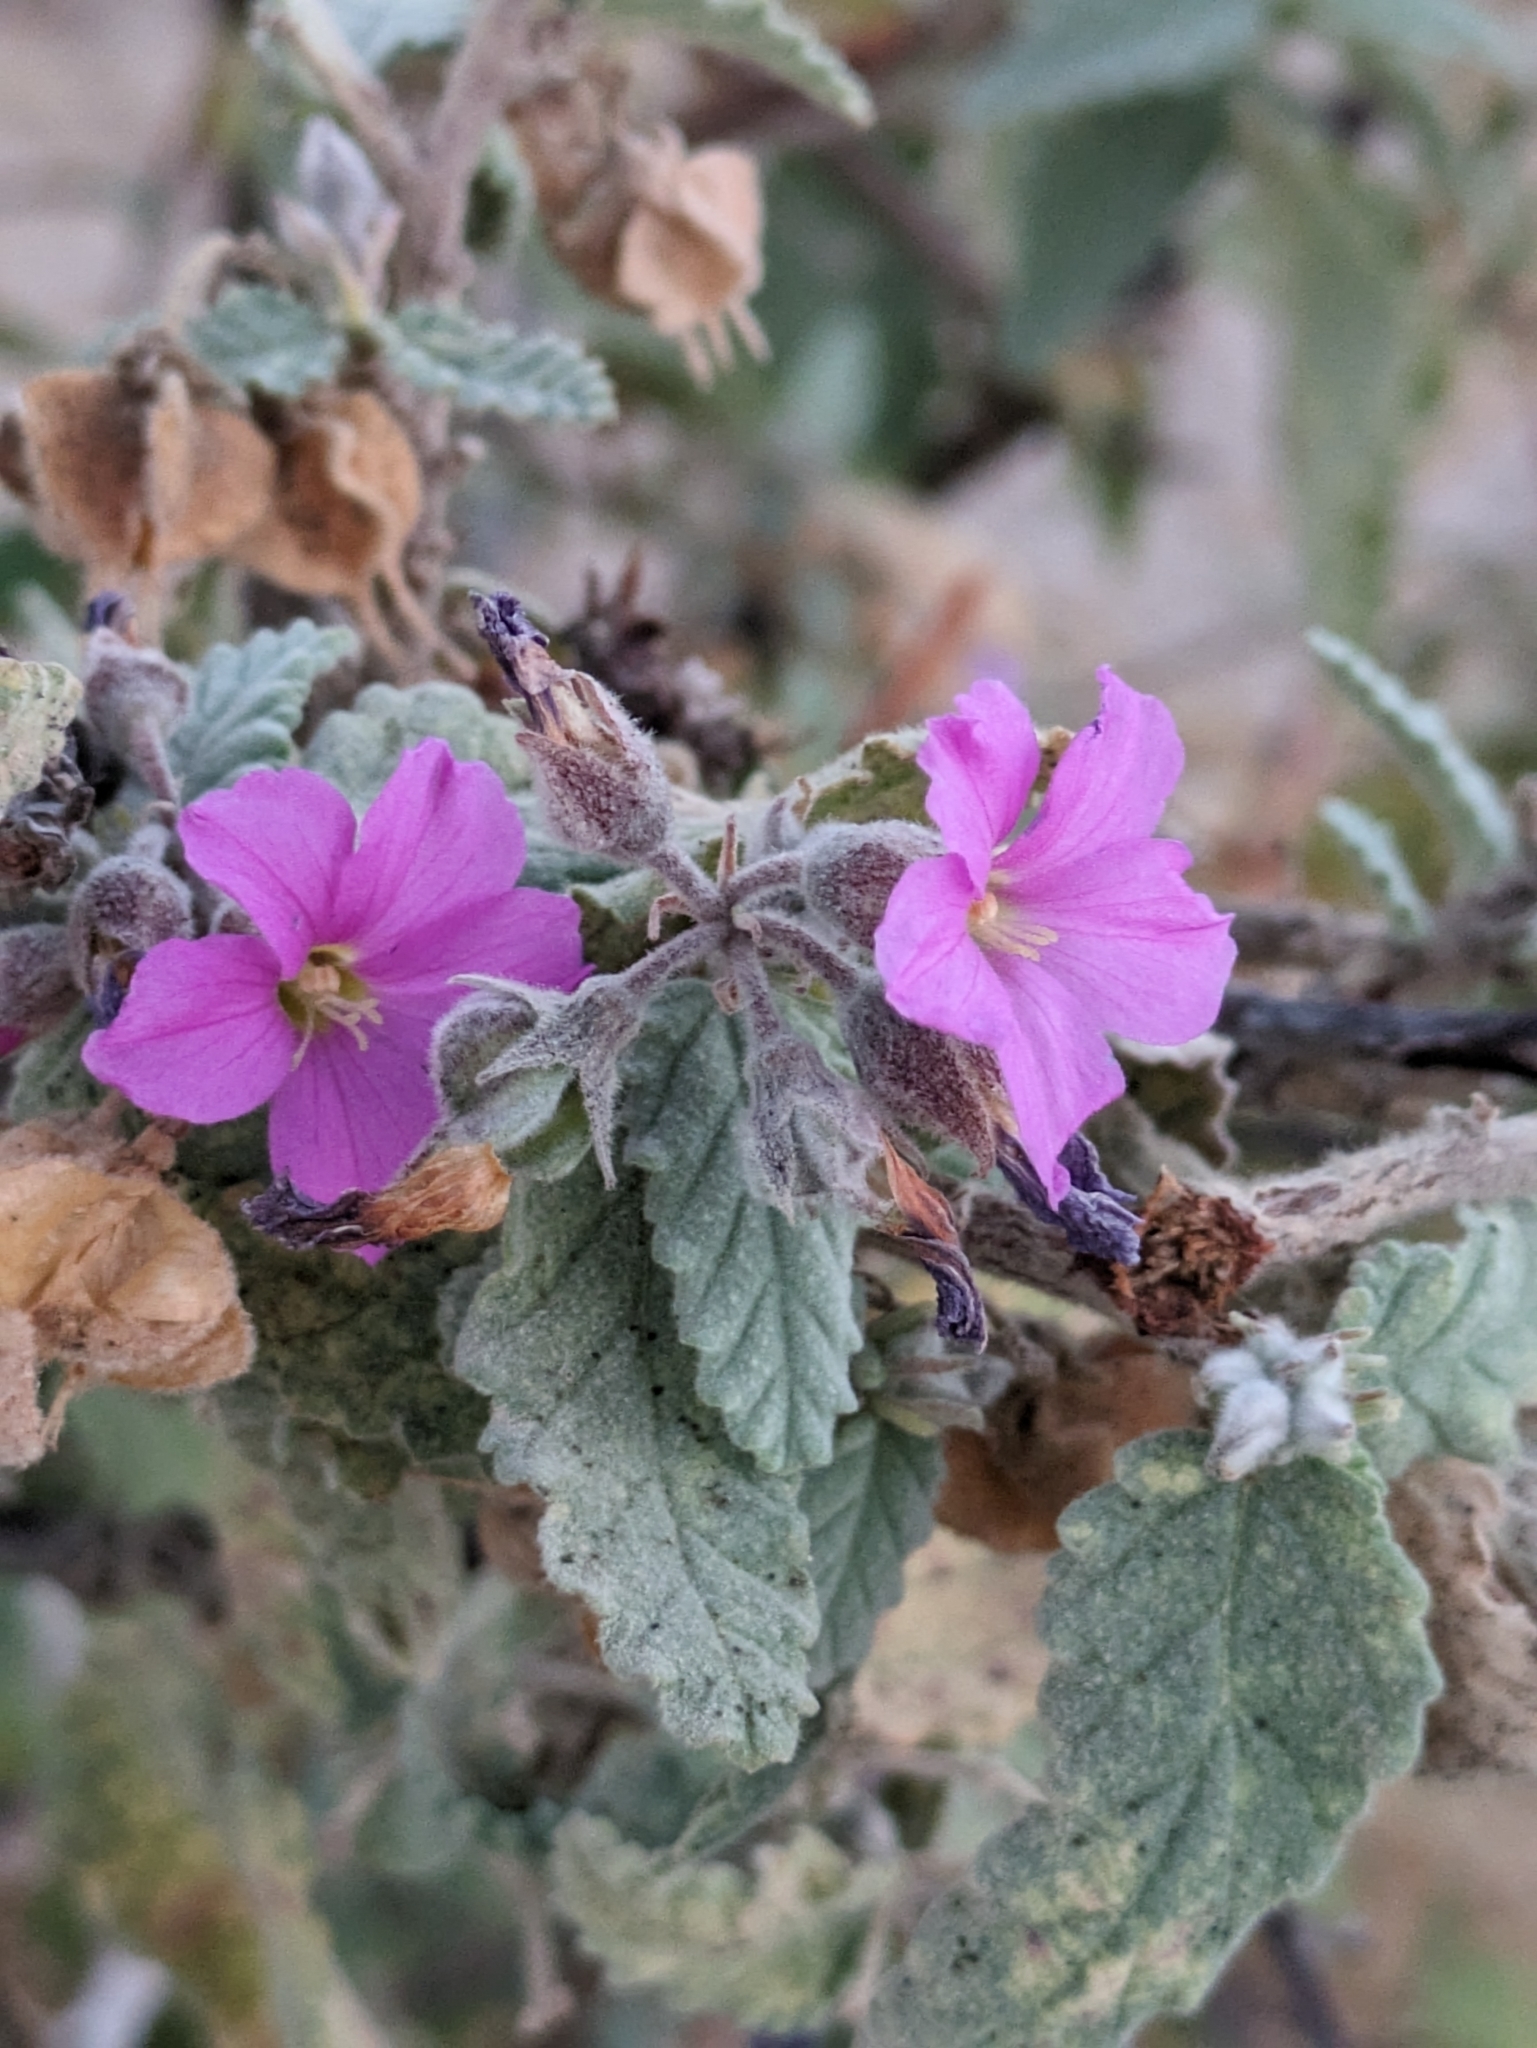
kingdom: Plantae
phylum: Tracheophyta
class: Magnoliopsida
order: Malvales
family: Malvaceae
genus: Melochia
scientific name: Melochia tomentosa
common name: Black torch
